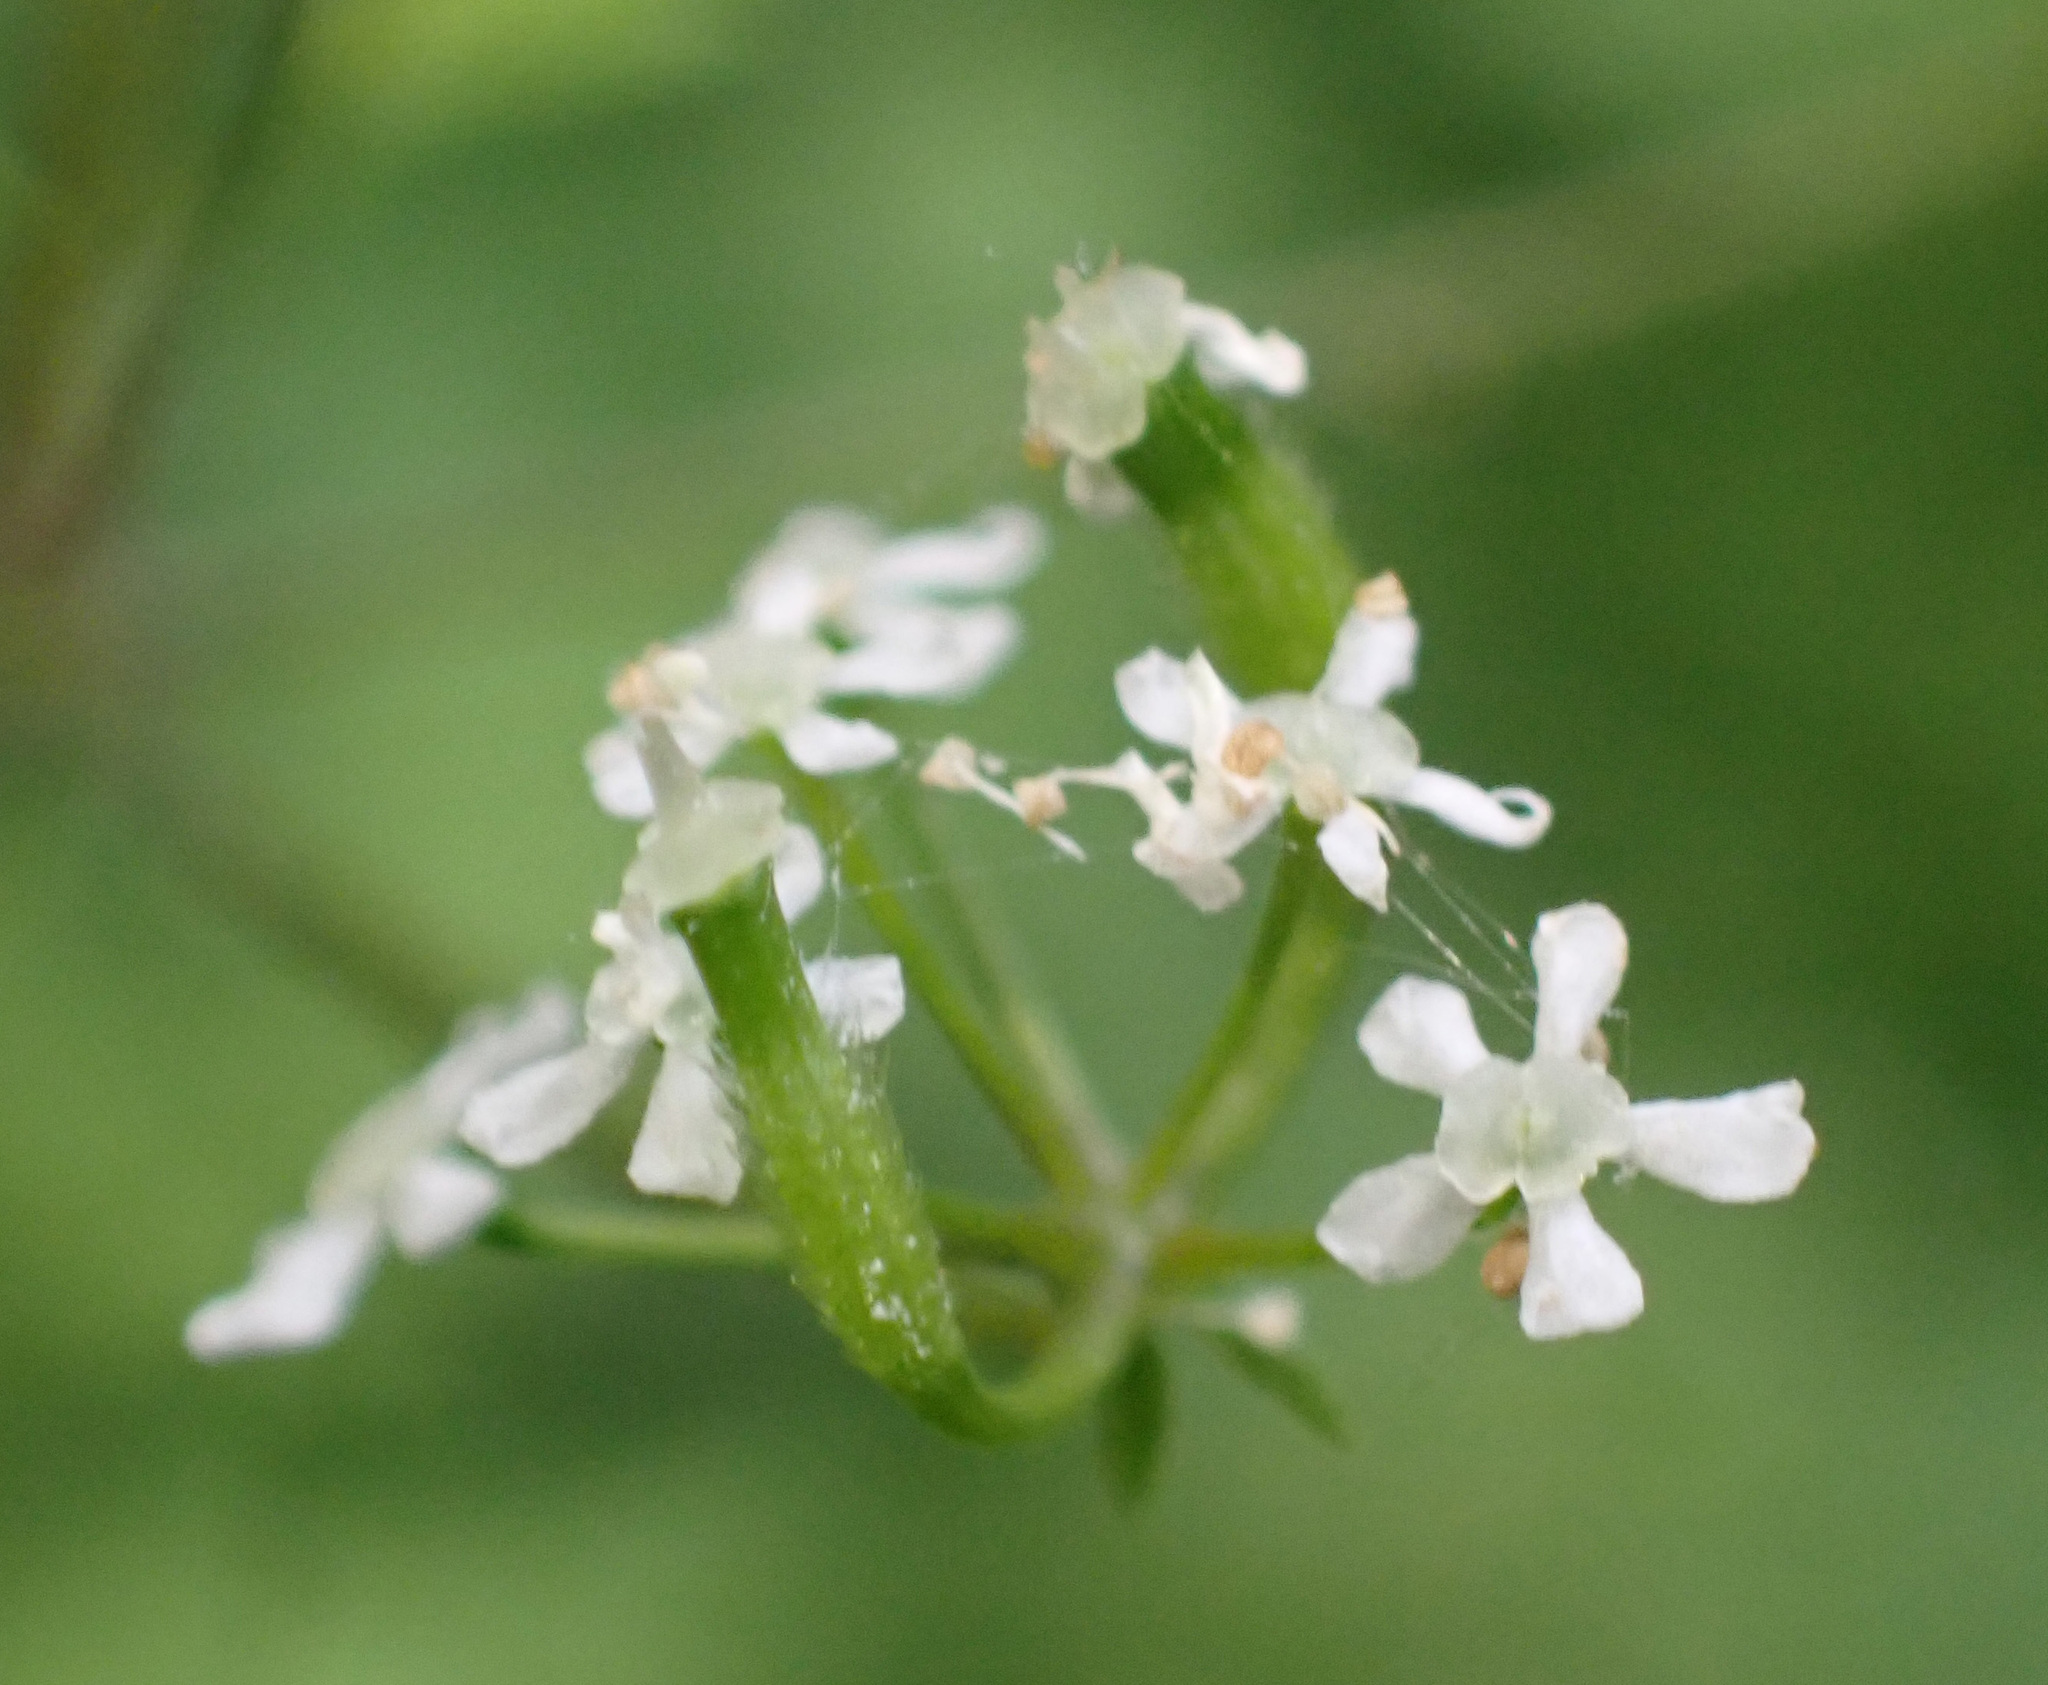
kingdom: Plantae
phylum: Tracheophyta
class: Magnoliopsida
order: Apiales
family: Apiaceae
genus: Anthriscus
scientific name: Anthriscus cerefolium
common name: Garden chervil
